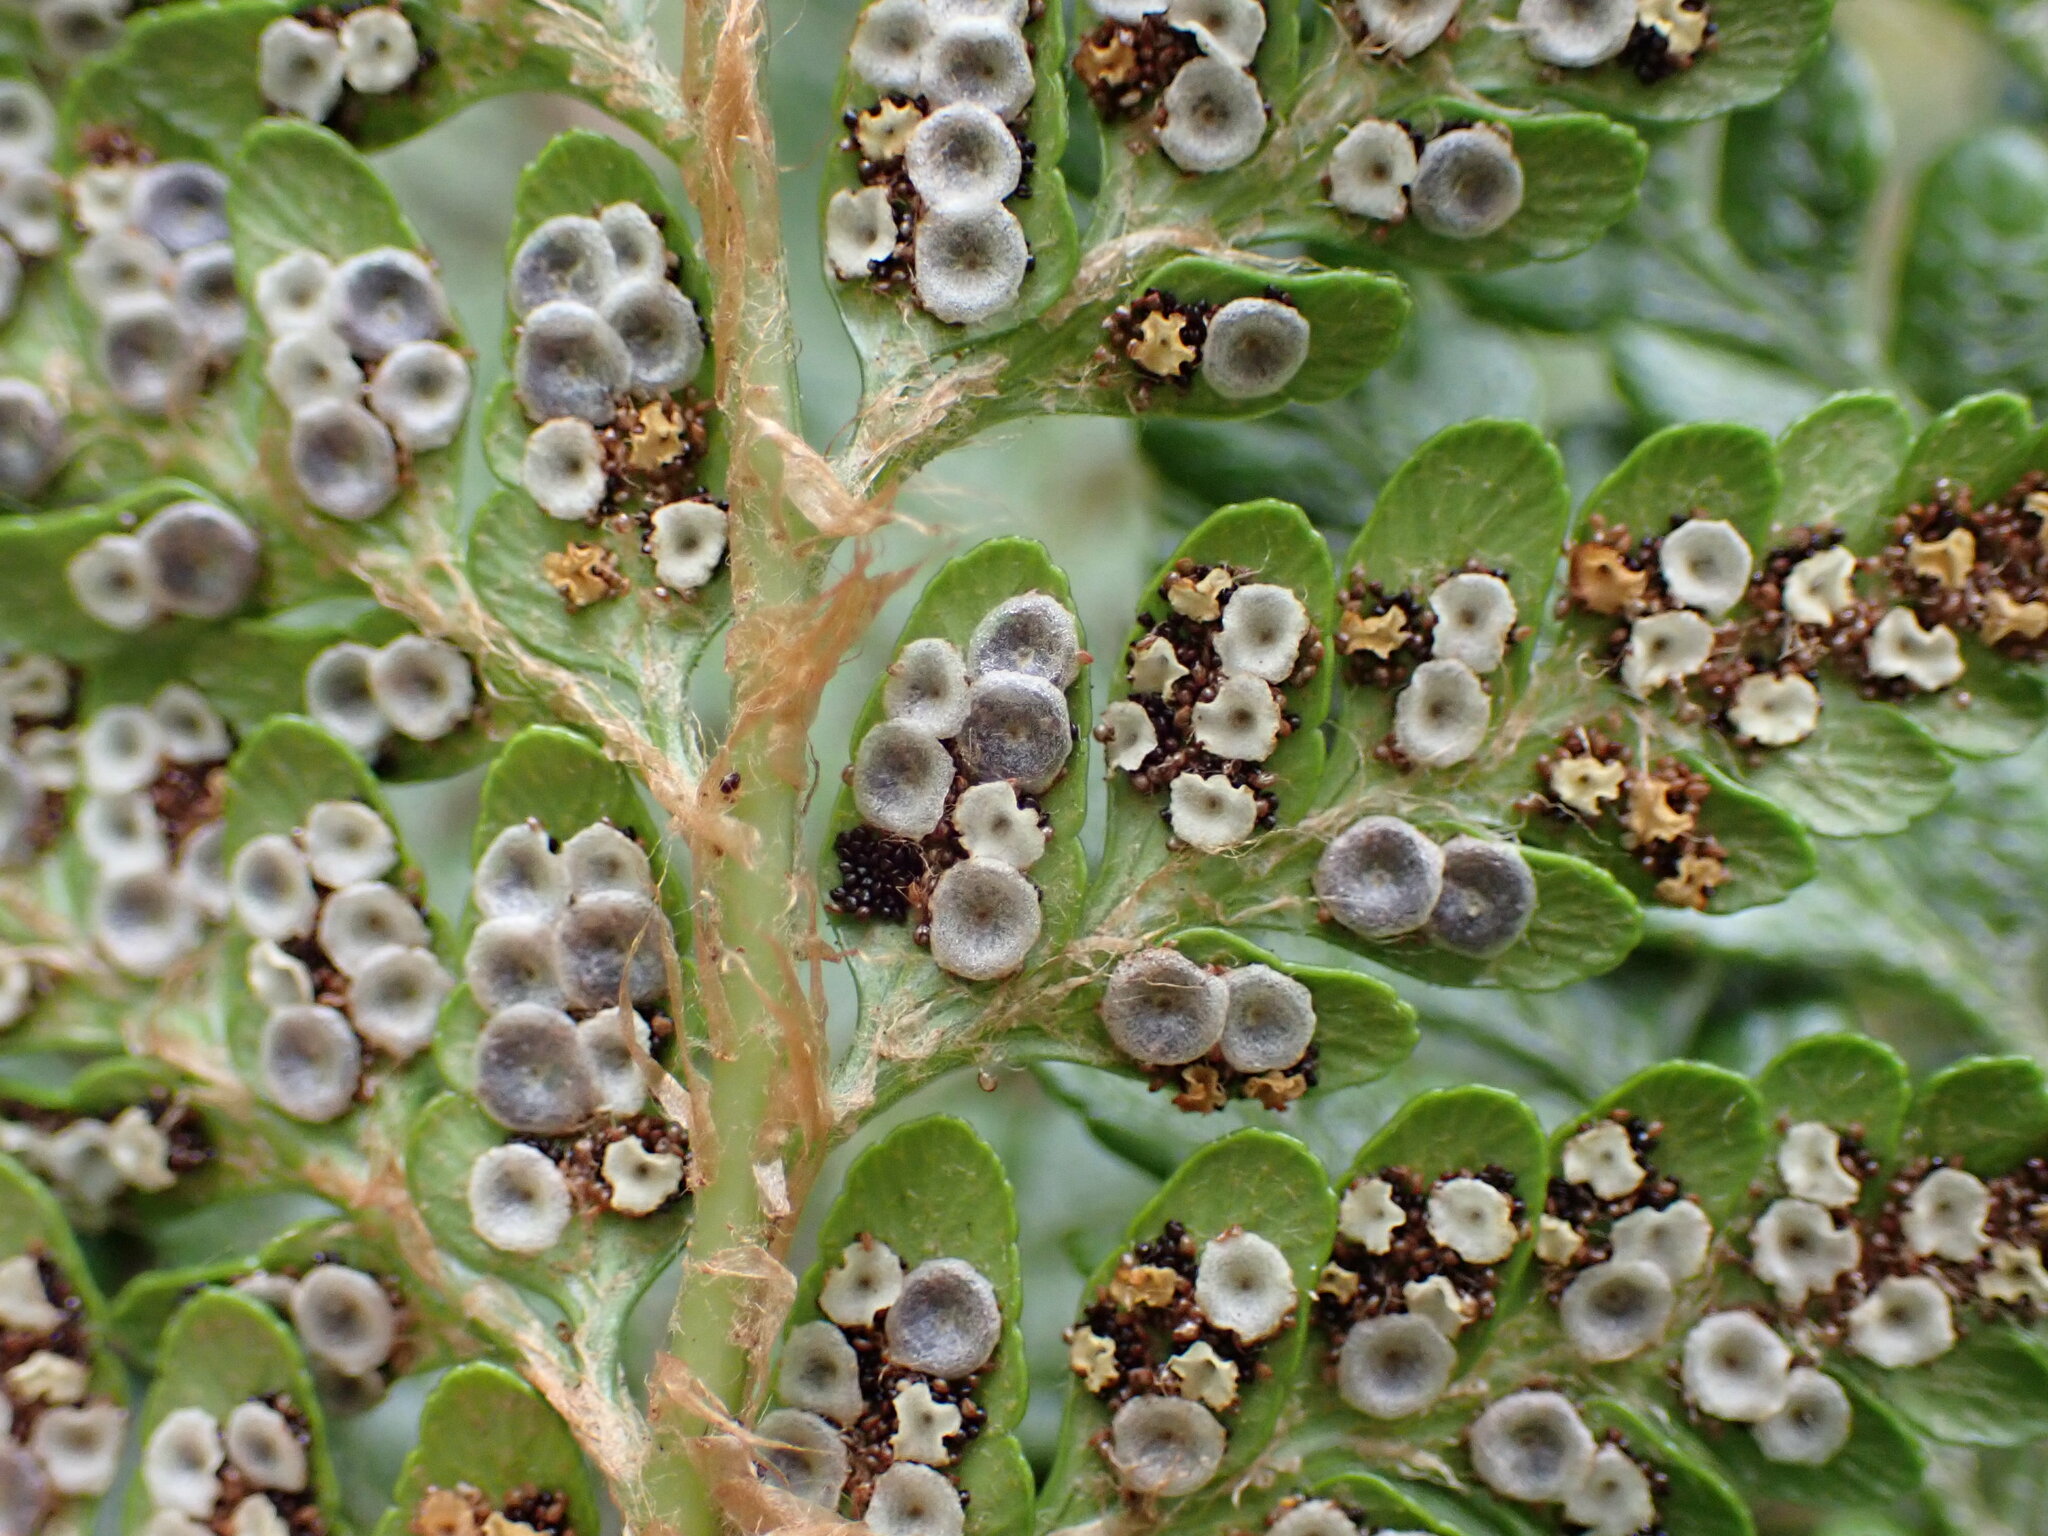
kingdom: Plantae
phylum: Tracheophyta
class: Polypodiopsida
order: Polypodiales
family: Dryopteridaceae
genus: Polystichum
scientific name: Polystichum whiteleggei
